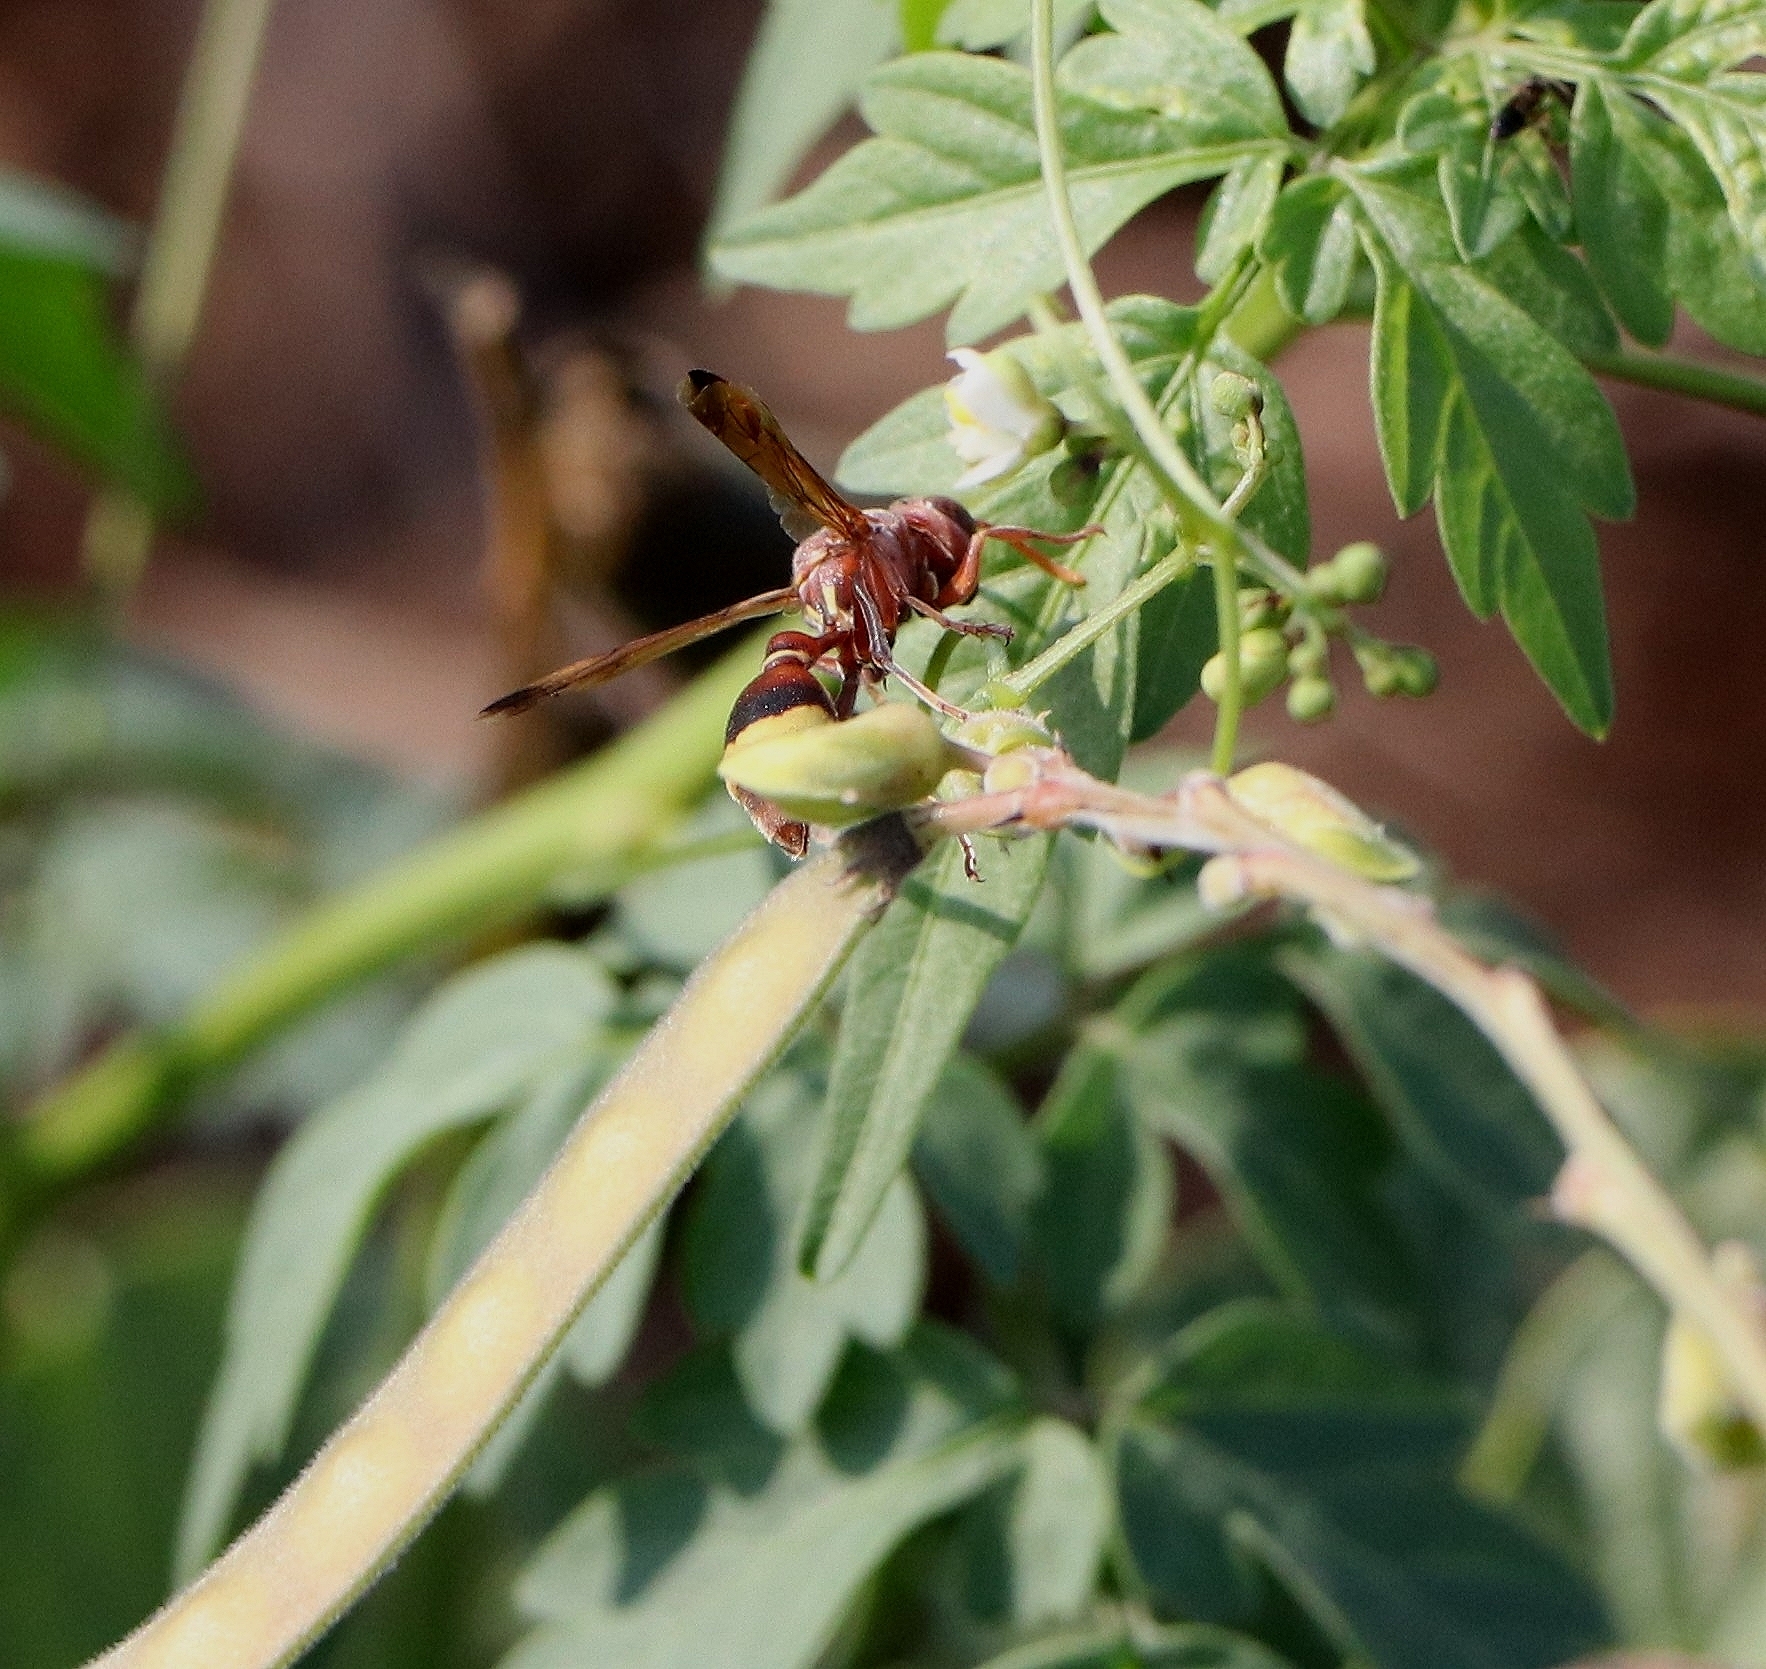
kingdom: Animalia
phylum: Arthropoda
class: Insecta
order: Hymenoptera
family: Vespidae
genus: Ropalidia
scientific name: Ropalidia
